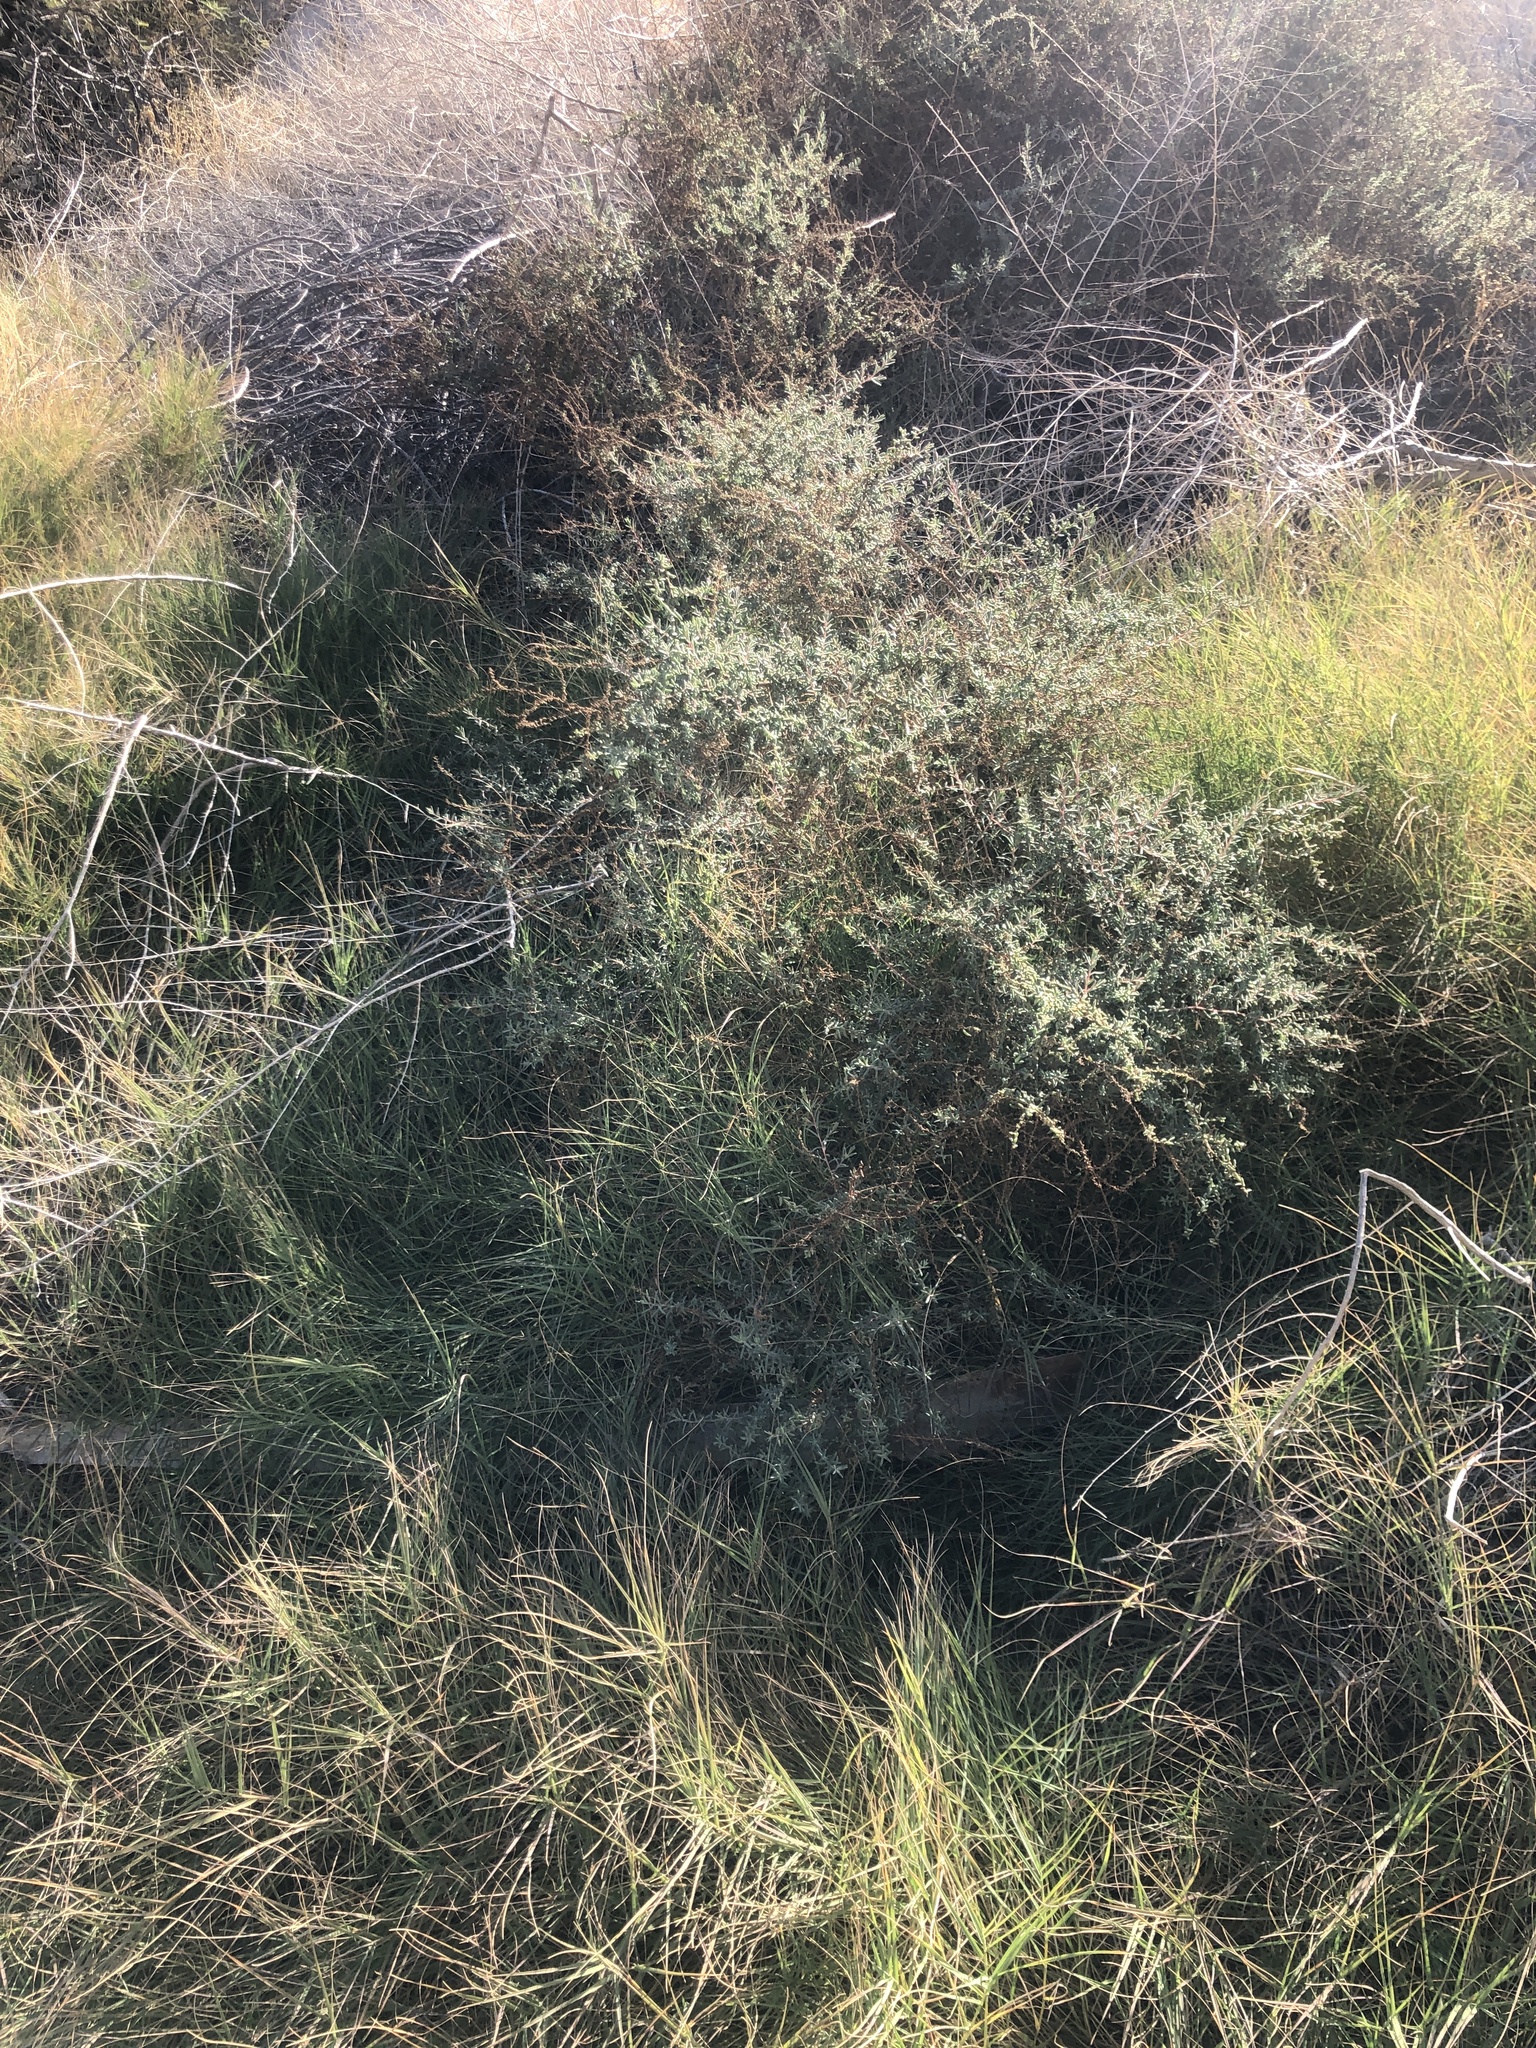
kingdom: Plantae
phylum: Tracheophyta
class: Magnoliopsida
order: Caryophyllales
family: Amaranthaceae
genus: Suaeda
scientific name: Suaeda nigra
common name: Bush seepweed
